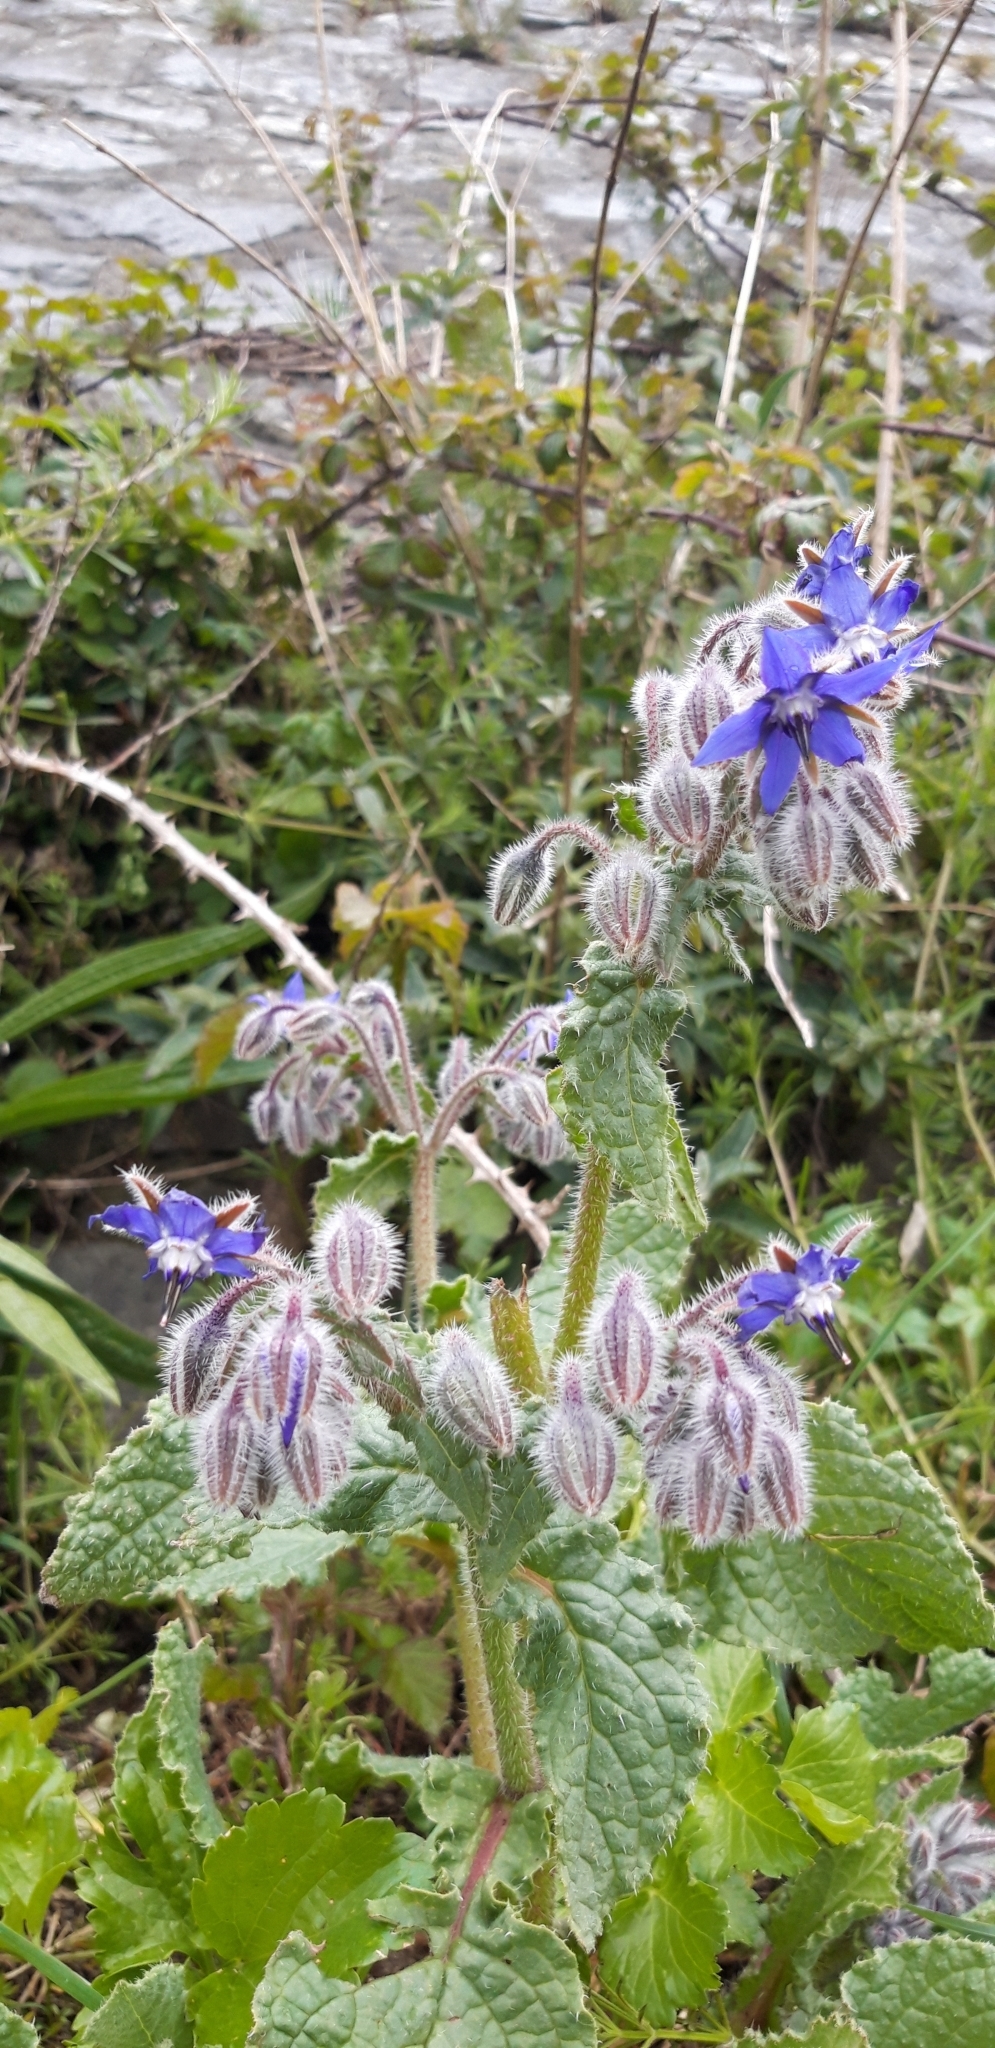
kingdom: Plantae
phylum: Tracheophyta
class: Magnoliopsida
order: Boraginales
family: Boraginaceae
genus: Borago
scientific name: Borago officinalis
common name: Borage
